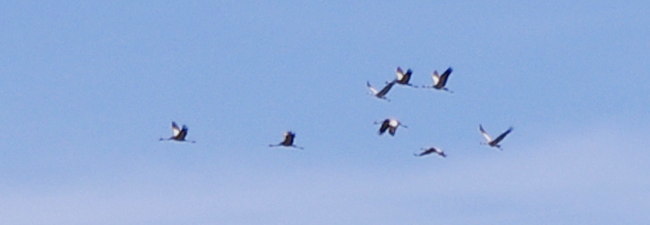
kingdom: Animalia
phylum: Chordata
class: Aves
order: Gruiformes
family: Gruidae
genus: Grus
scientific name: Grus grus
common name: Common crane
